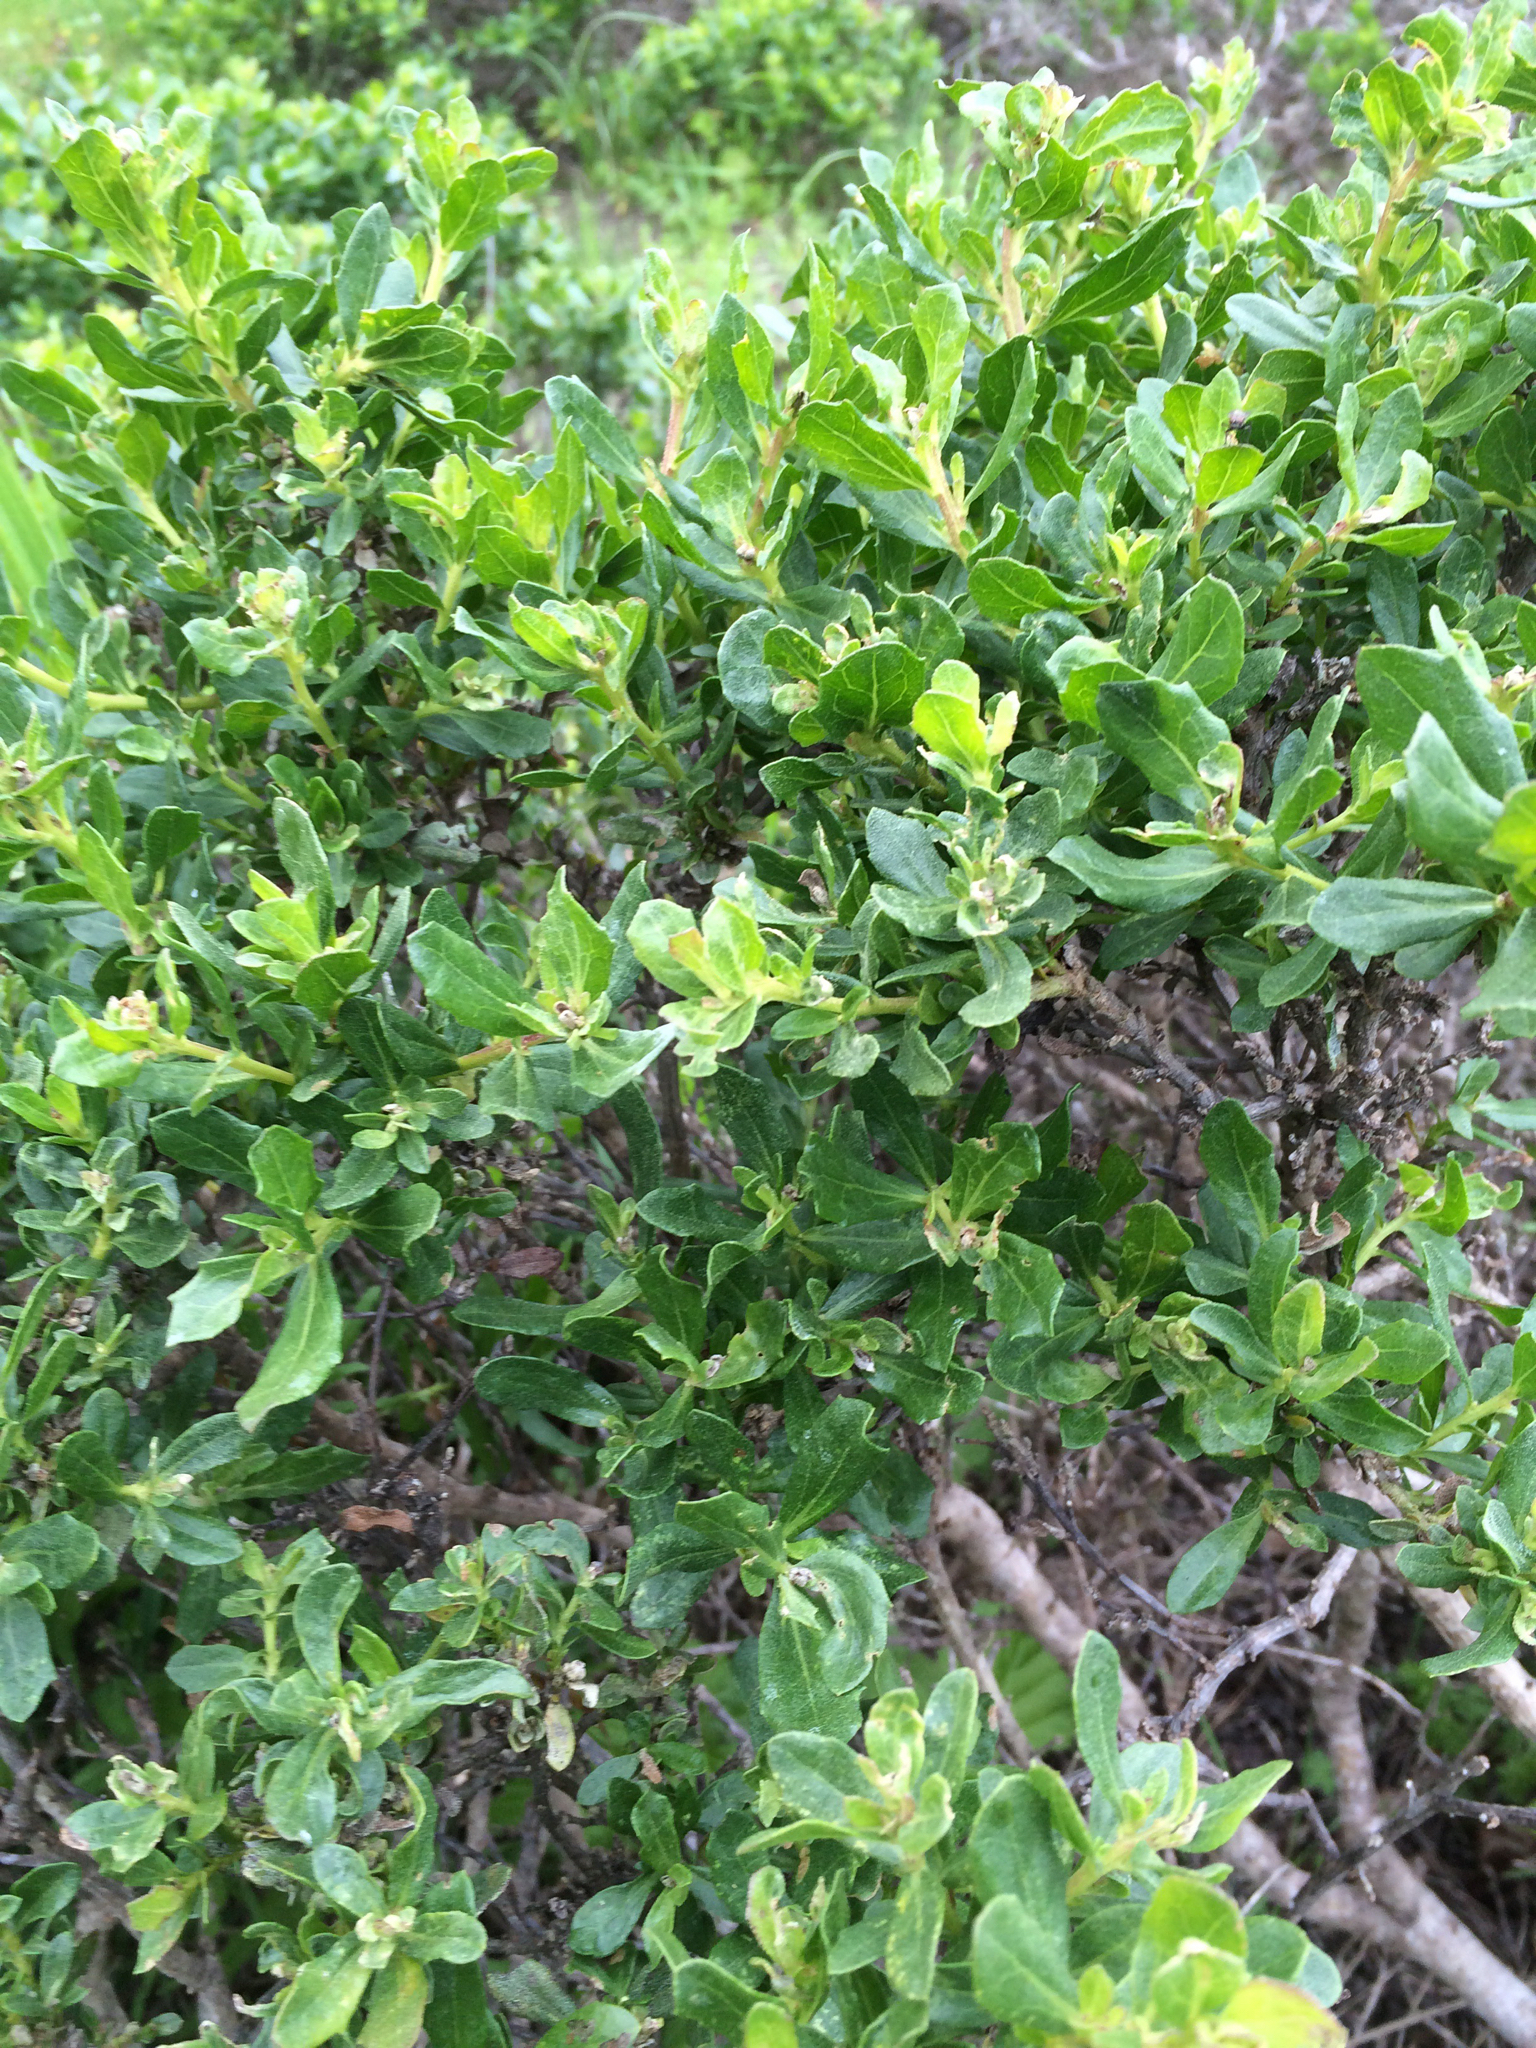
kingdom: Plantae
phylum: Tracheophyta
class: Magnoliopsida
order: Asterales
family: Asteraceae
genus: Baccharis
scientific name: Baccharis pilularis
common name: Coyotebrush
